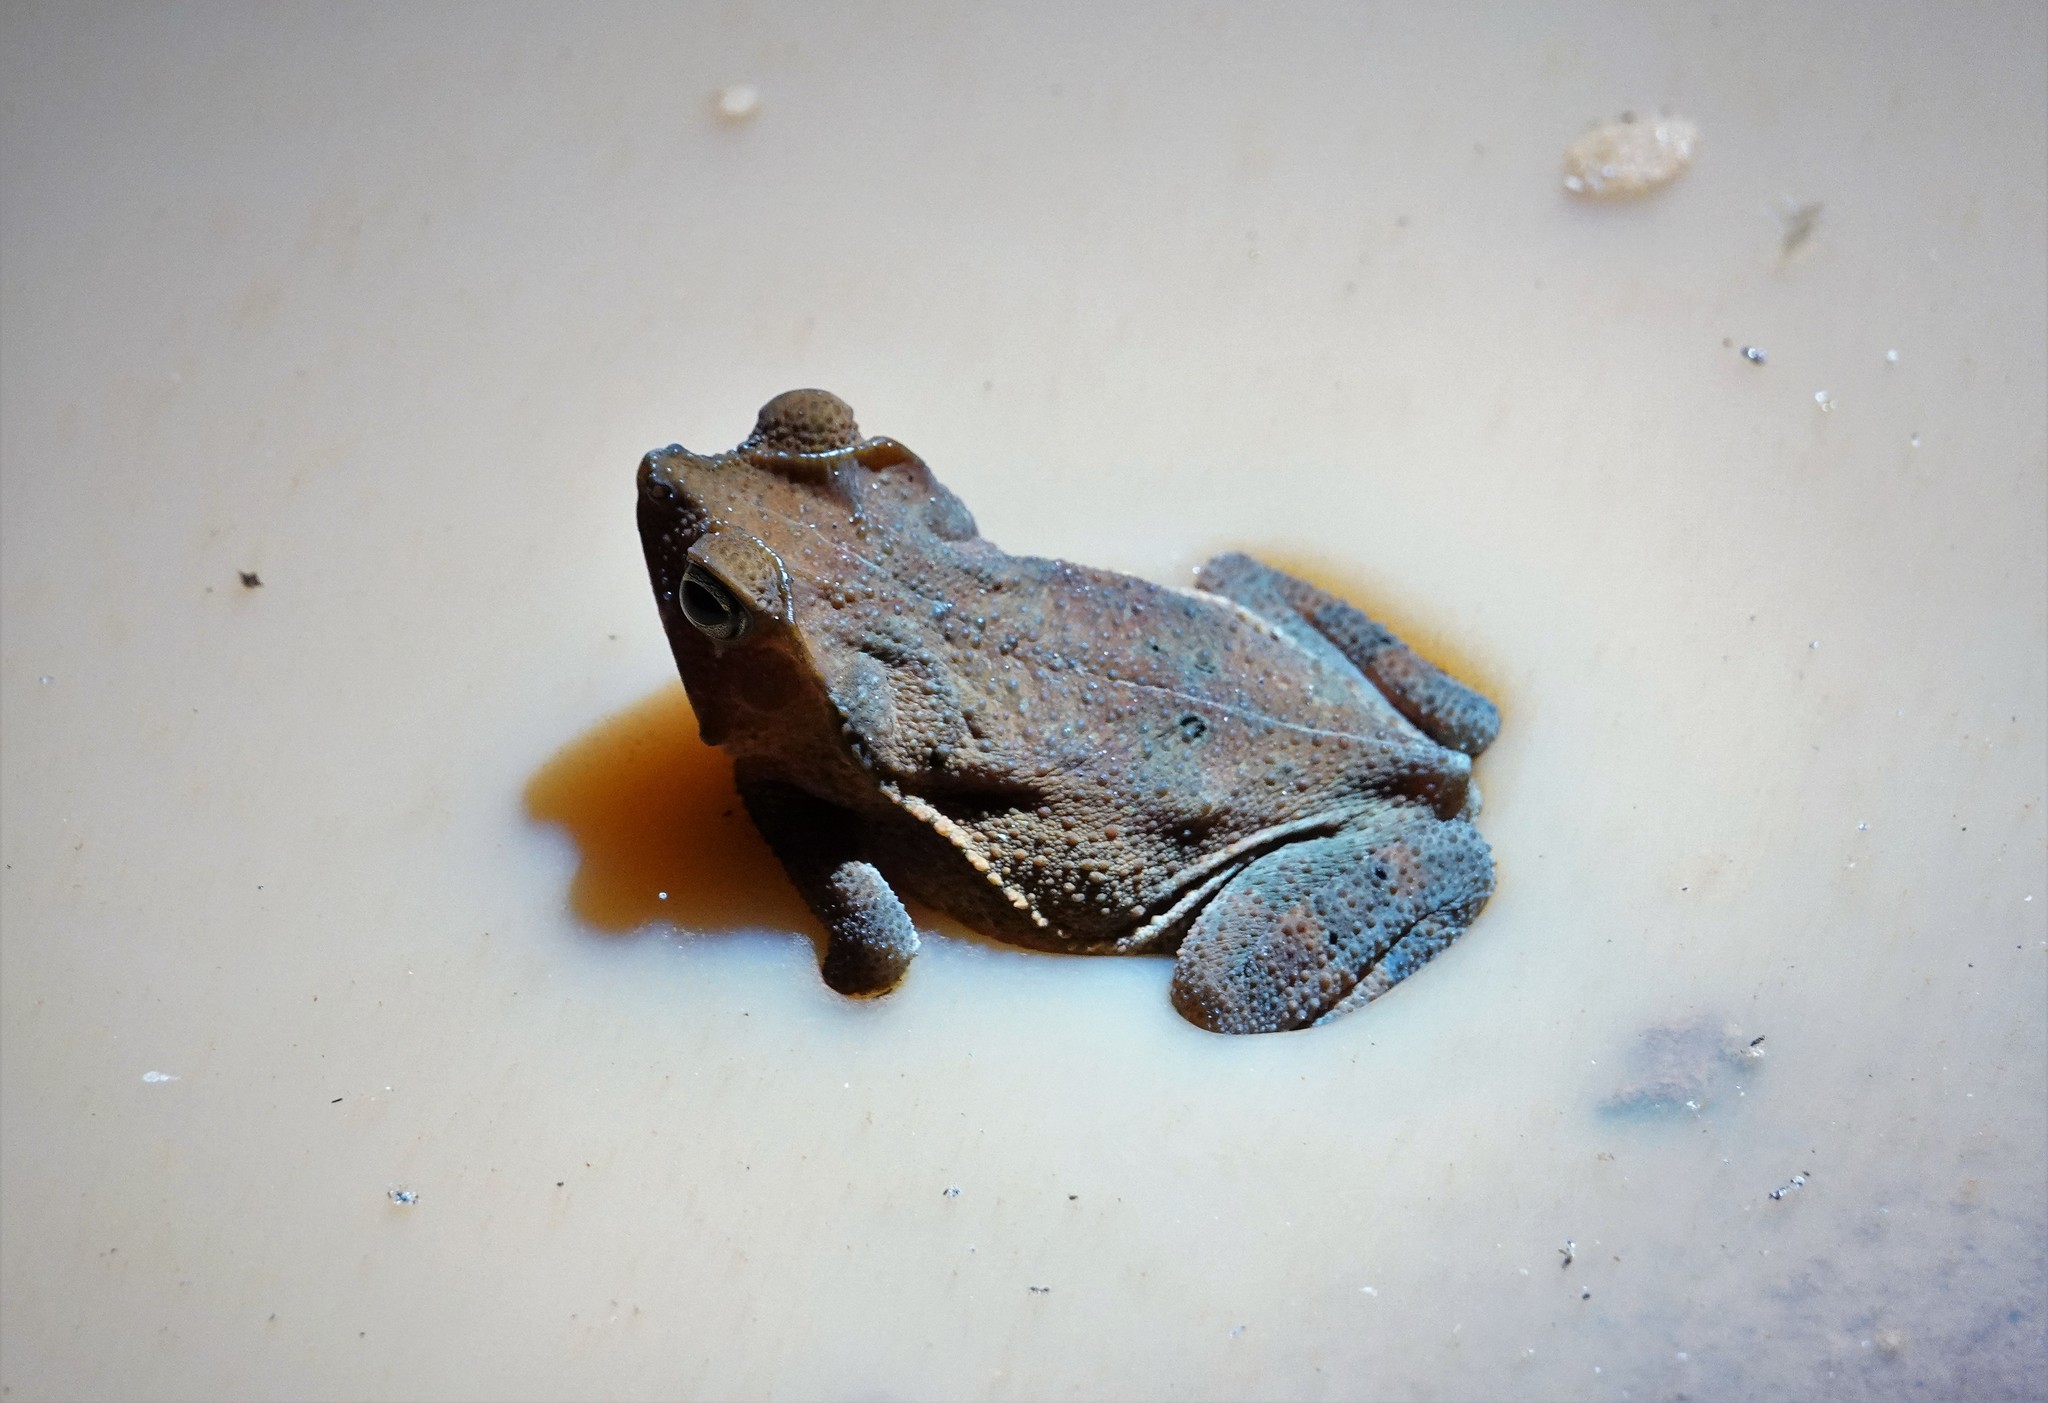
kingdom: Animalia
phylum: Chordata
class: Amphibia
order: Anura
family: Bufonidae
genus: Rhinella
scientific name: Rhinella margaritifera
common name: Mitred toad
